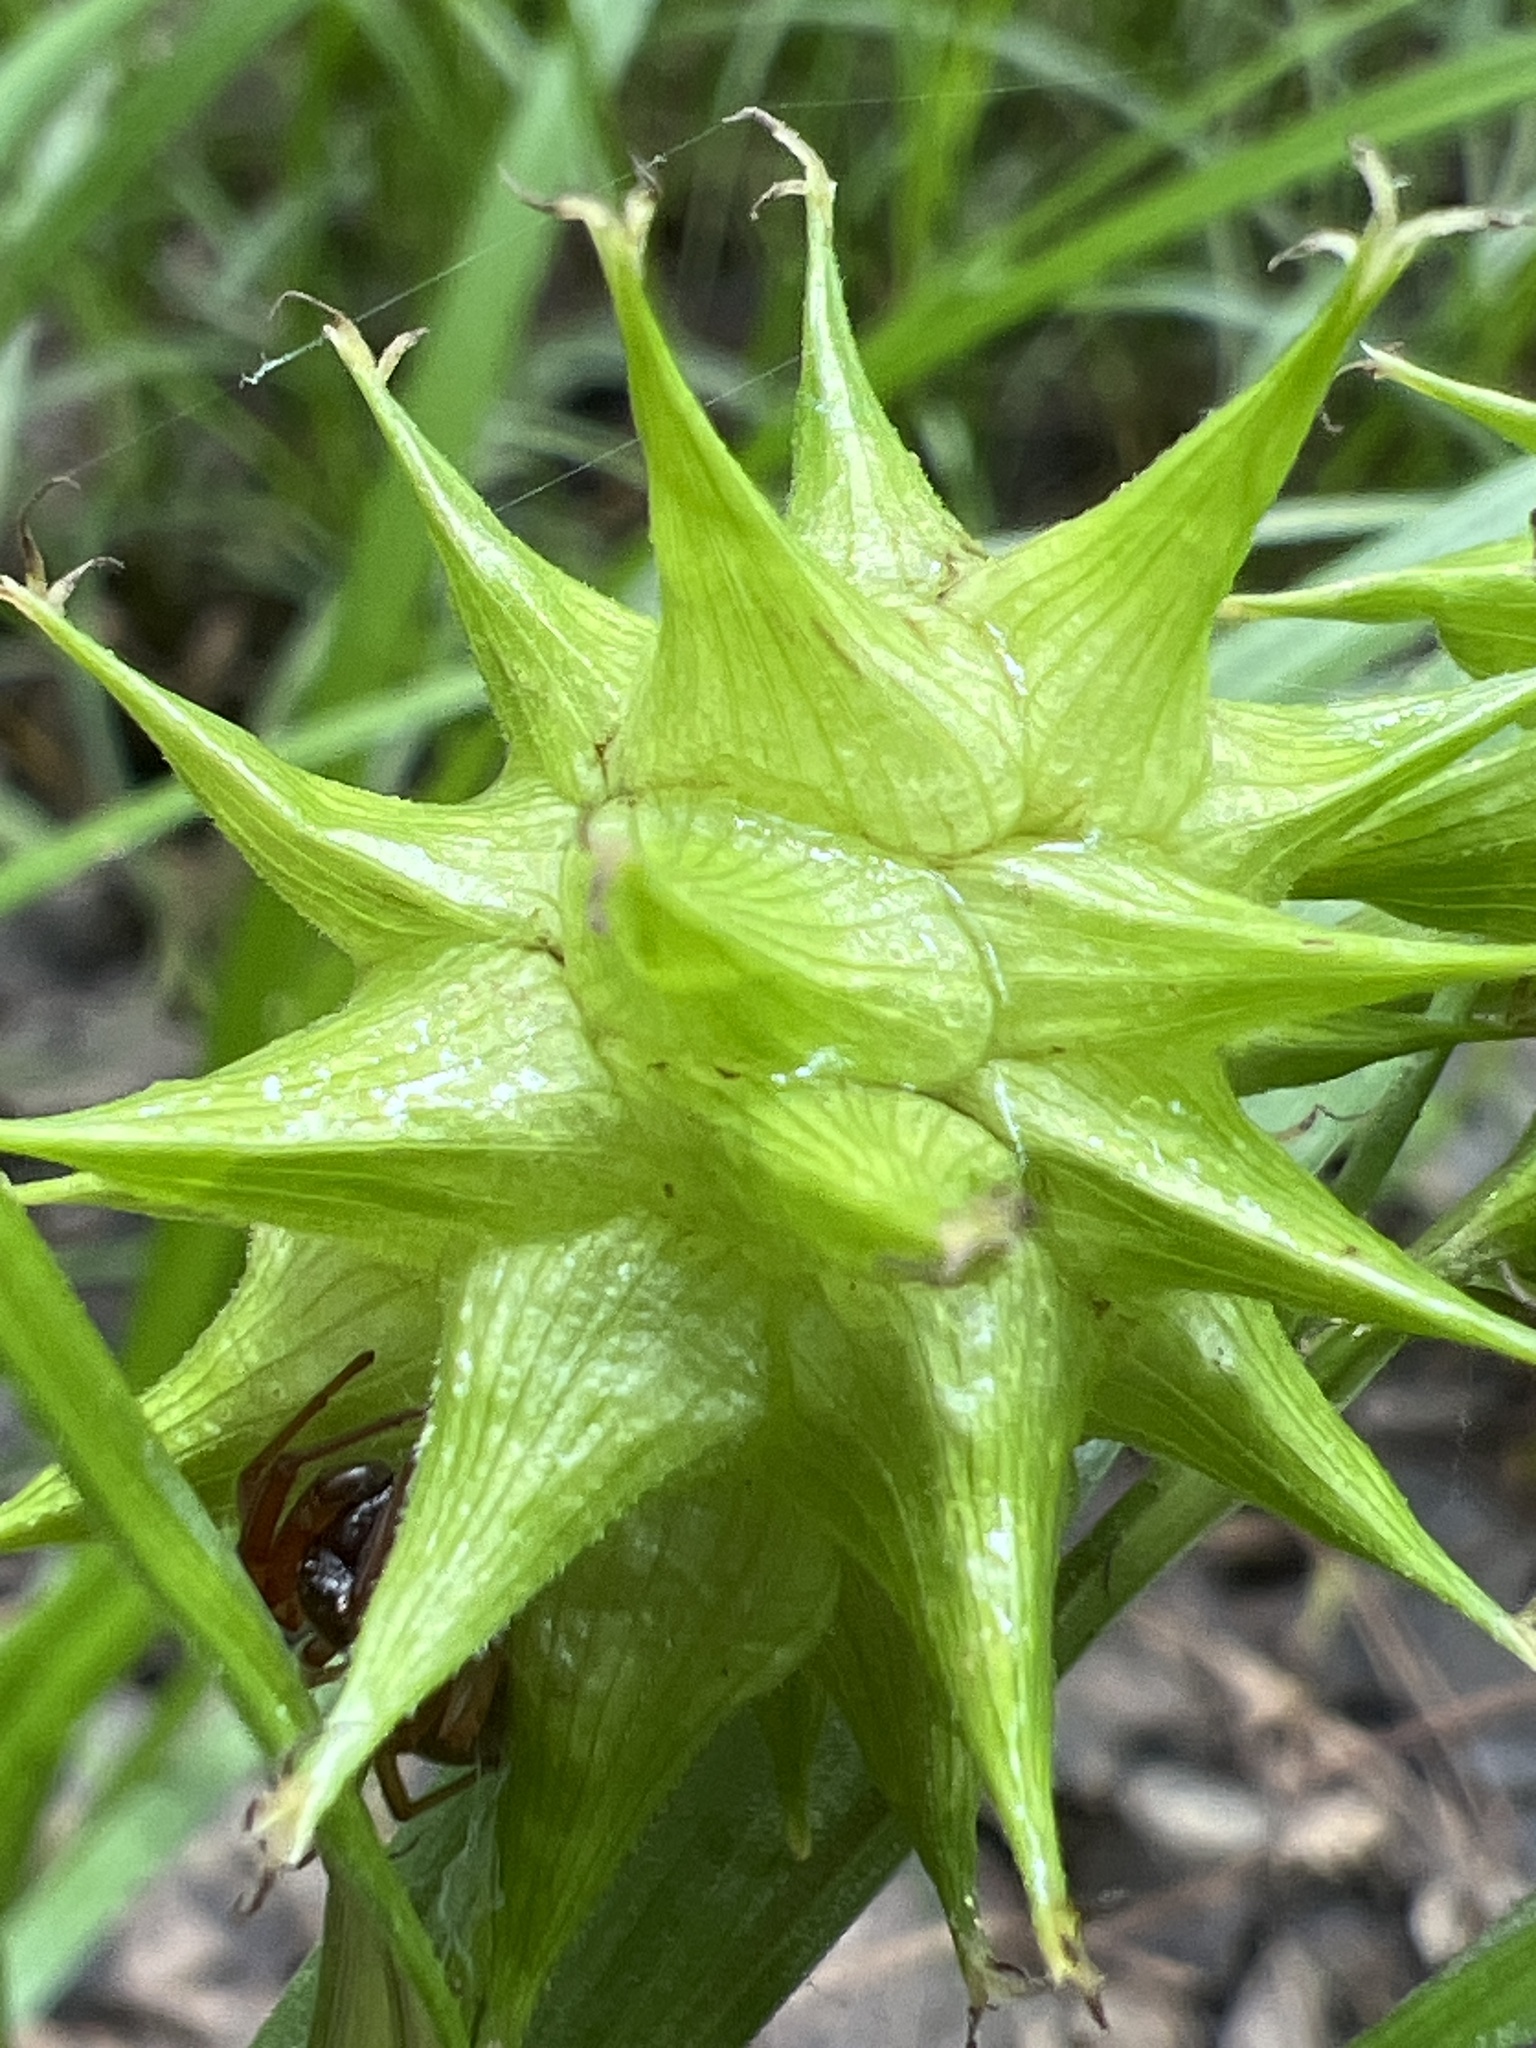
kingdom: Plantae
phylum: Tracheophyta
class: Liliopsida
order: Poales
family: Cyperaceae
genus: Carex
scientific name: Carex grayi
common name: Asa gray's sedge
